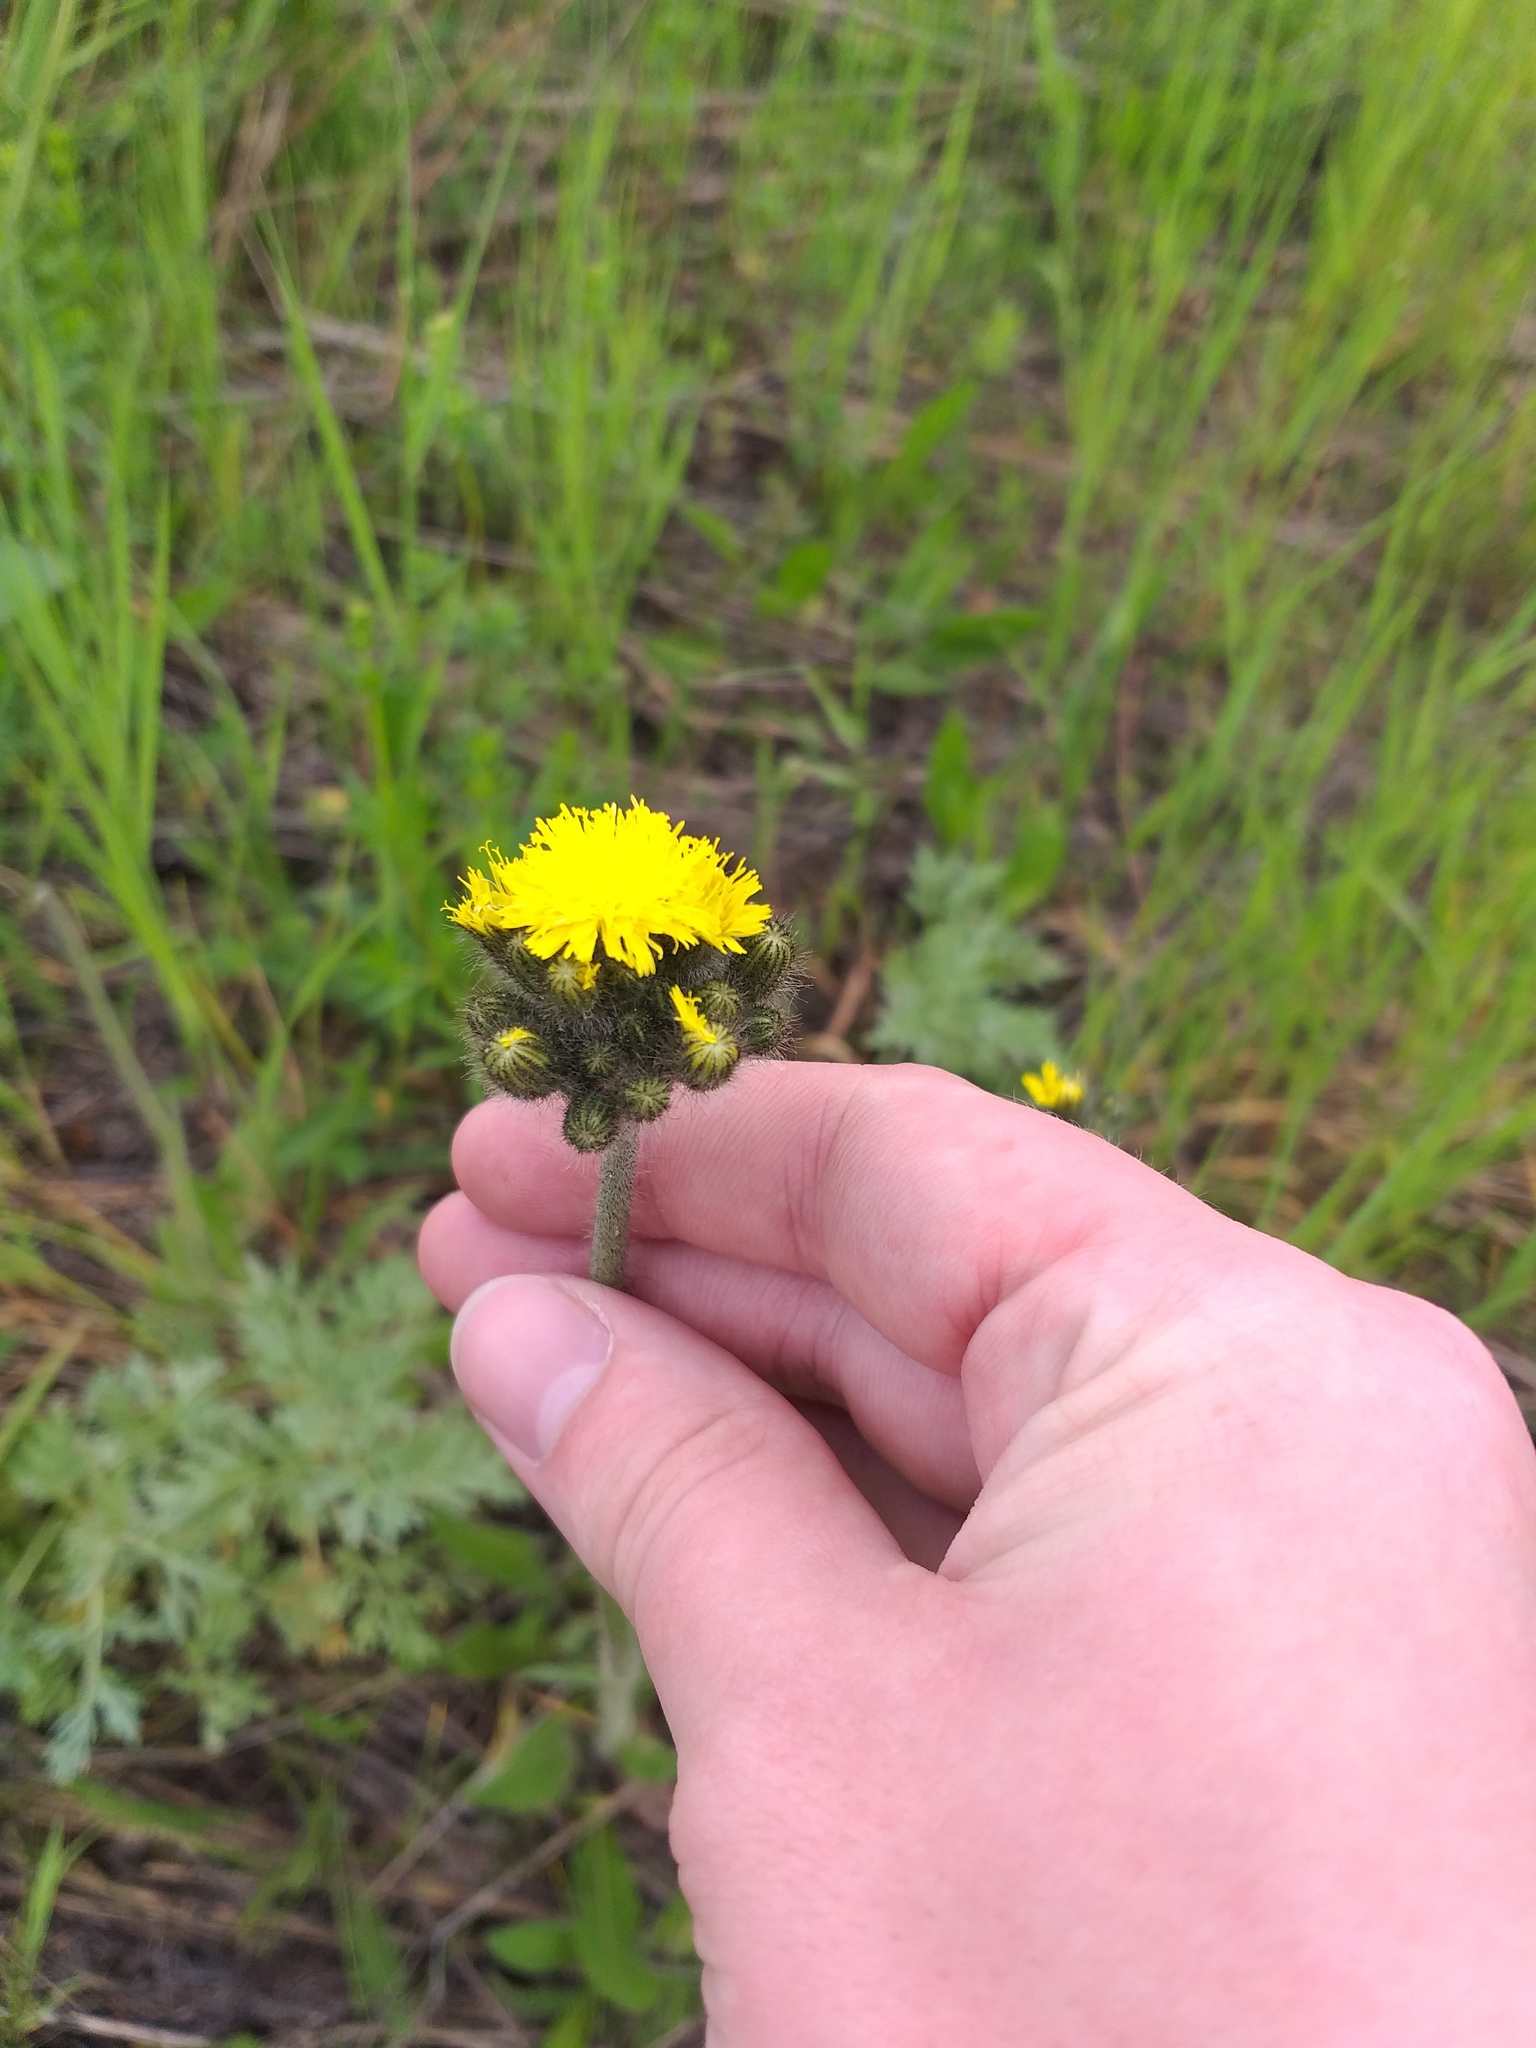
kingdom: Plantae
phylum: Tracheophyta
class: Magnoliopsida
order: Asterales
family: Asteraceae
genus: Pilosella
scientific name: Pilosella
